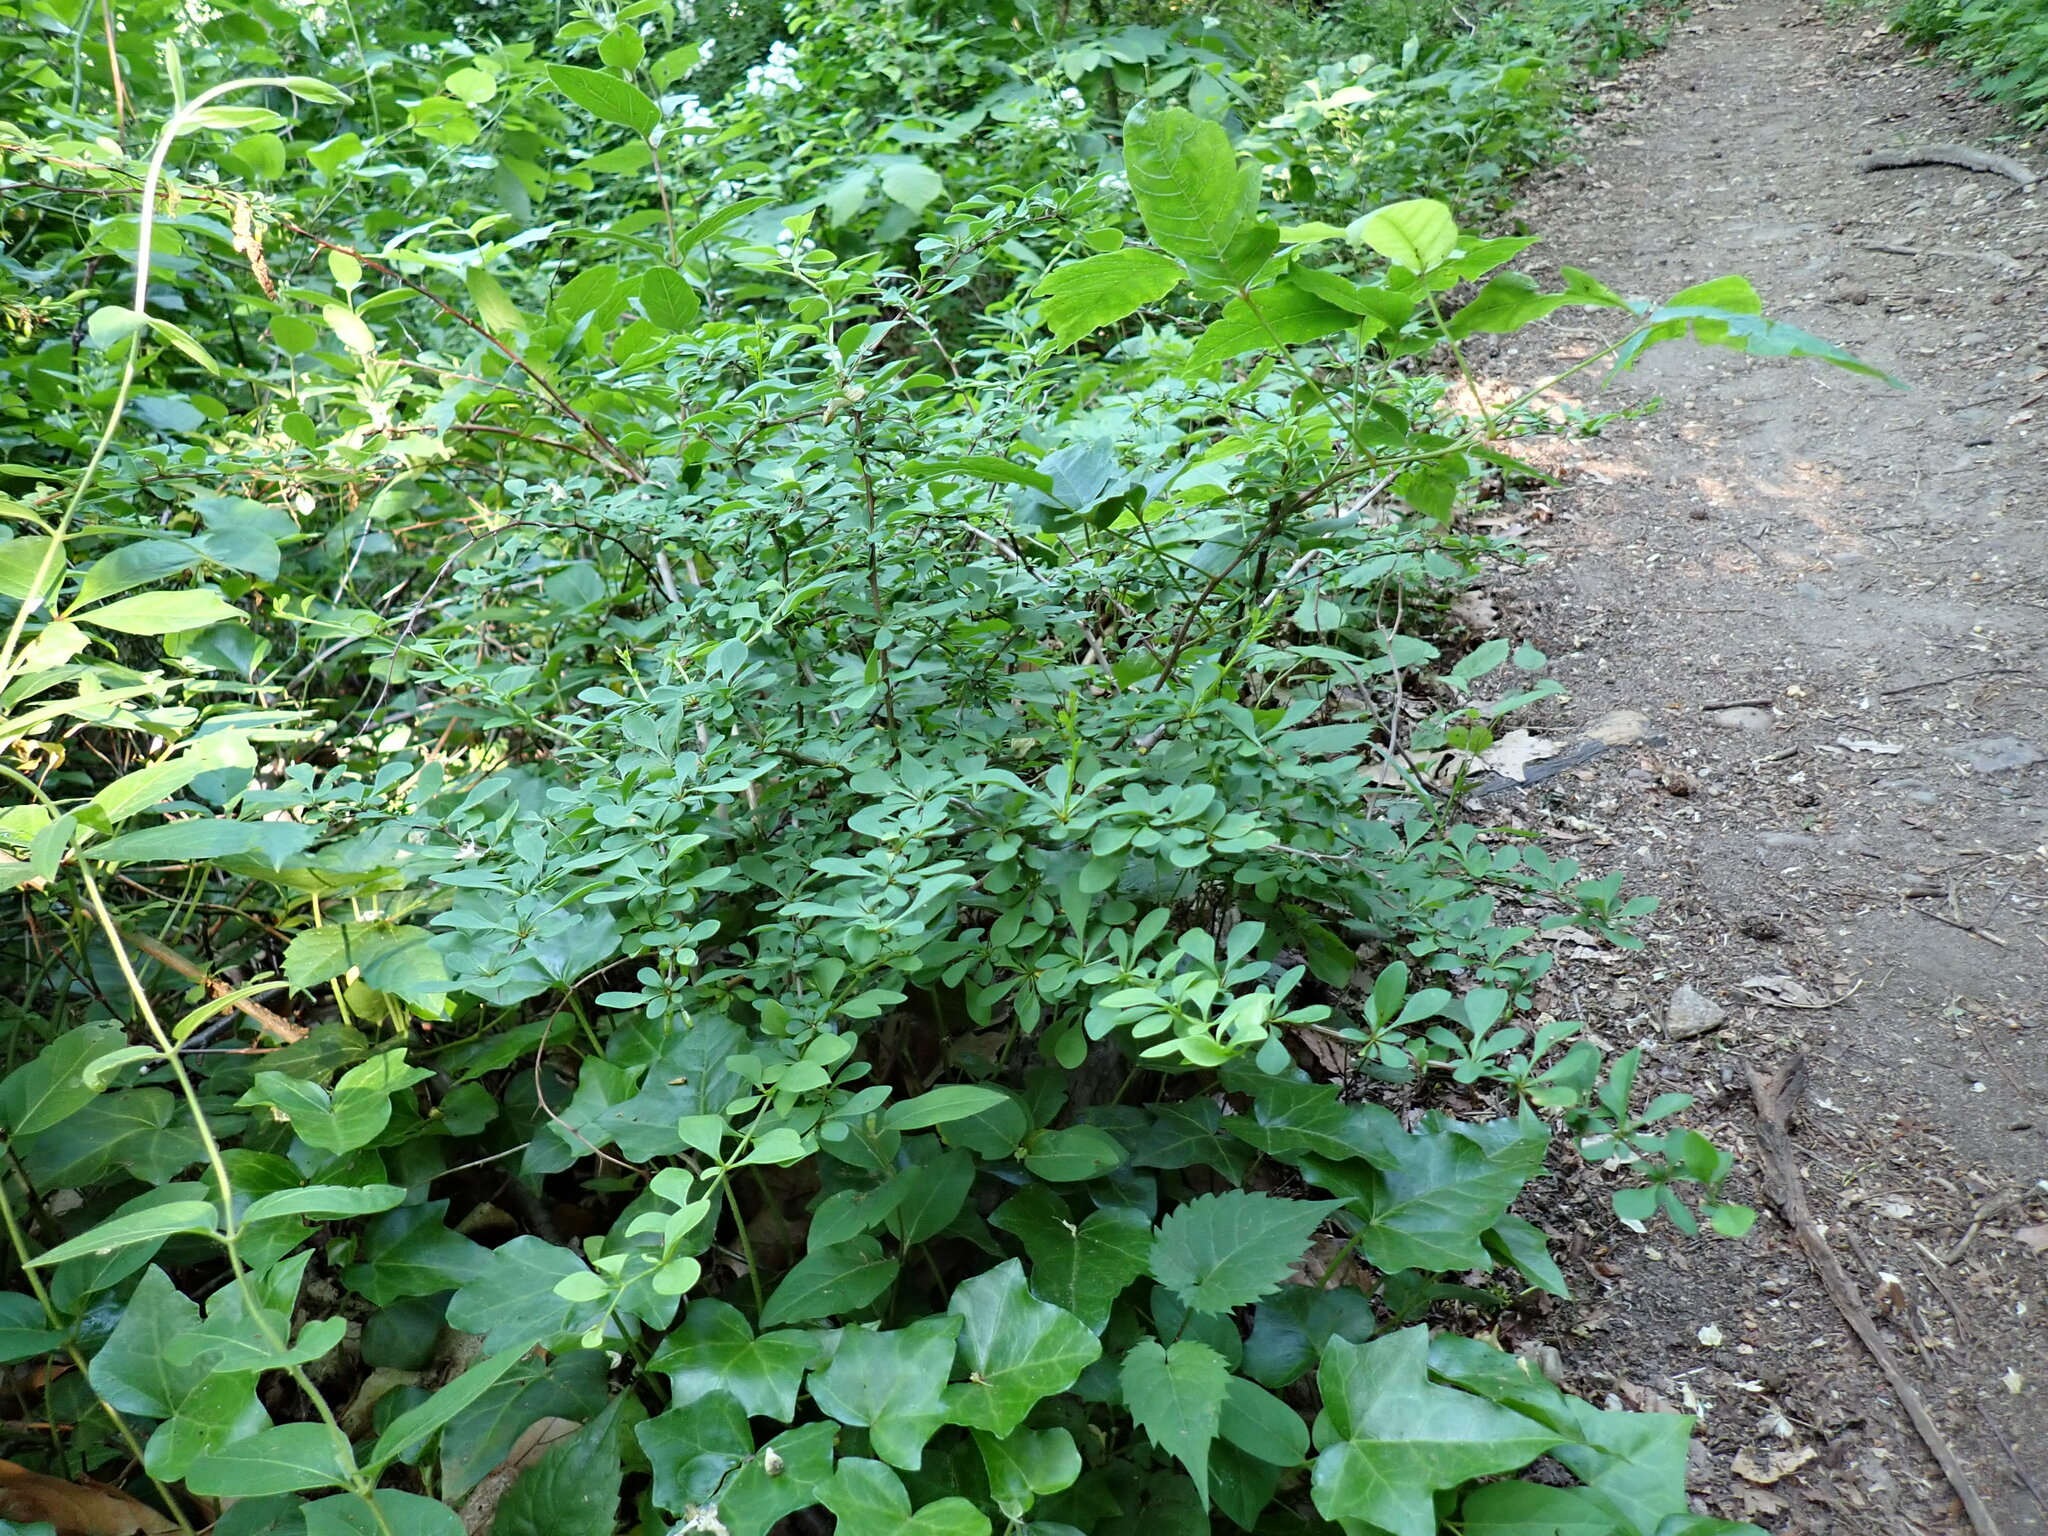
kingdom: Plantae
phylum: Tracheophyta
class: Magnoliopsida
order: Ranunculales
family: Berberidaceae
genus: Berberis
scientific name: Berberis thunbergii
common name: Japanese barberry
